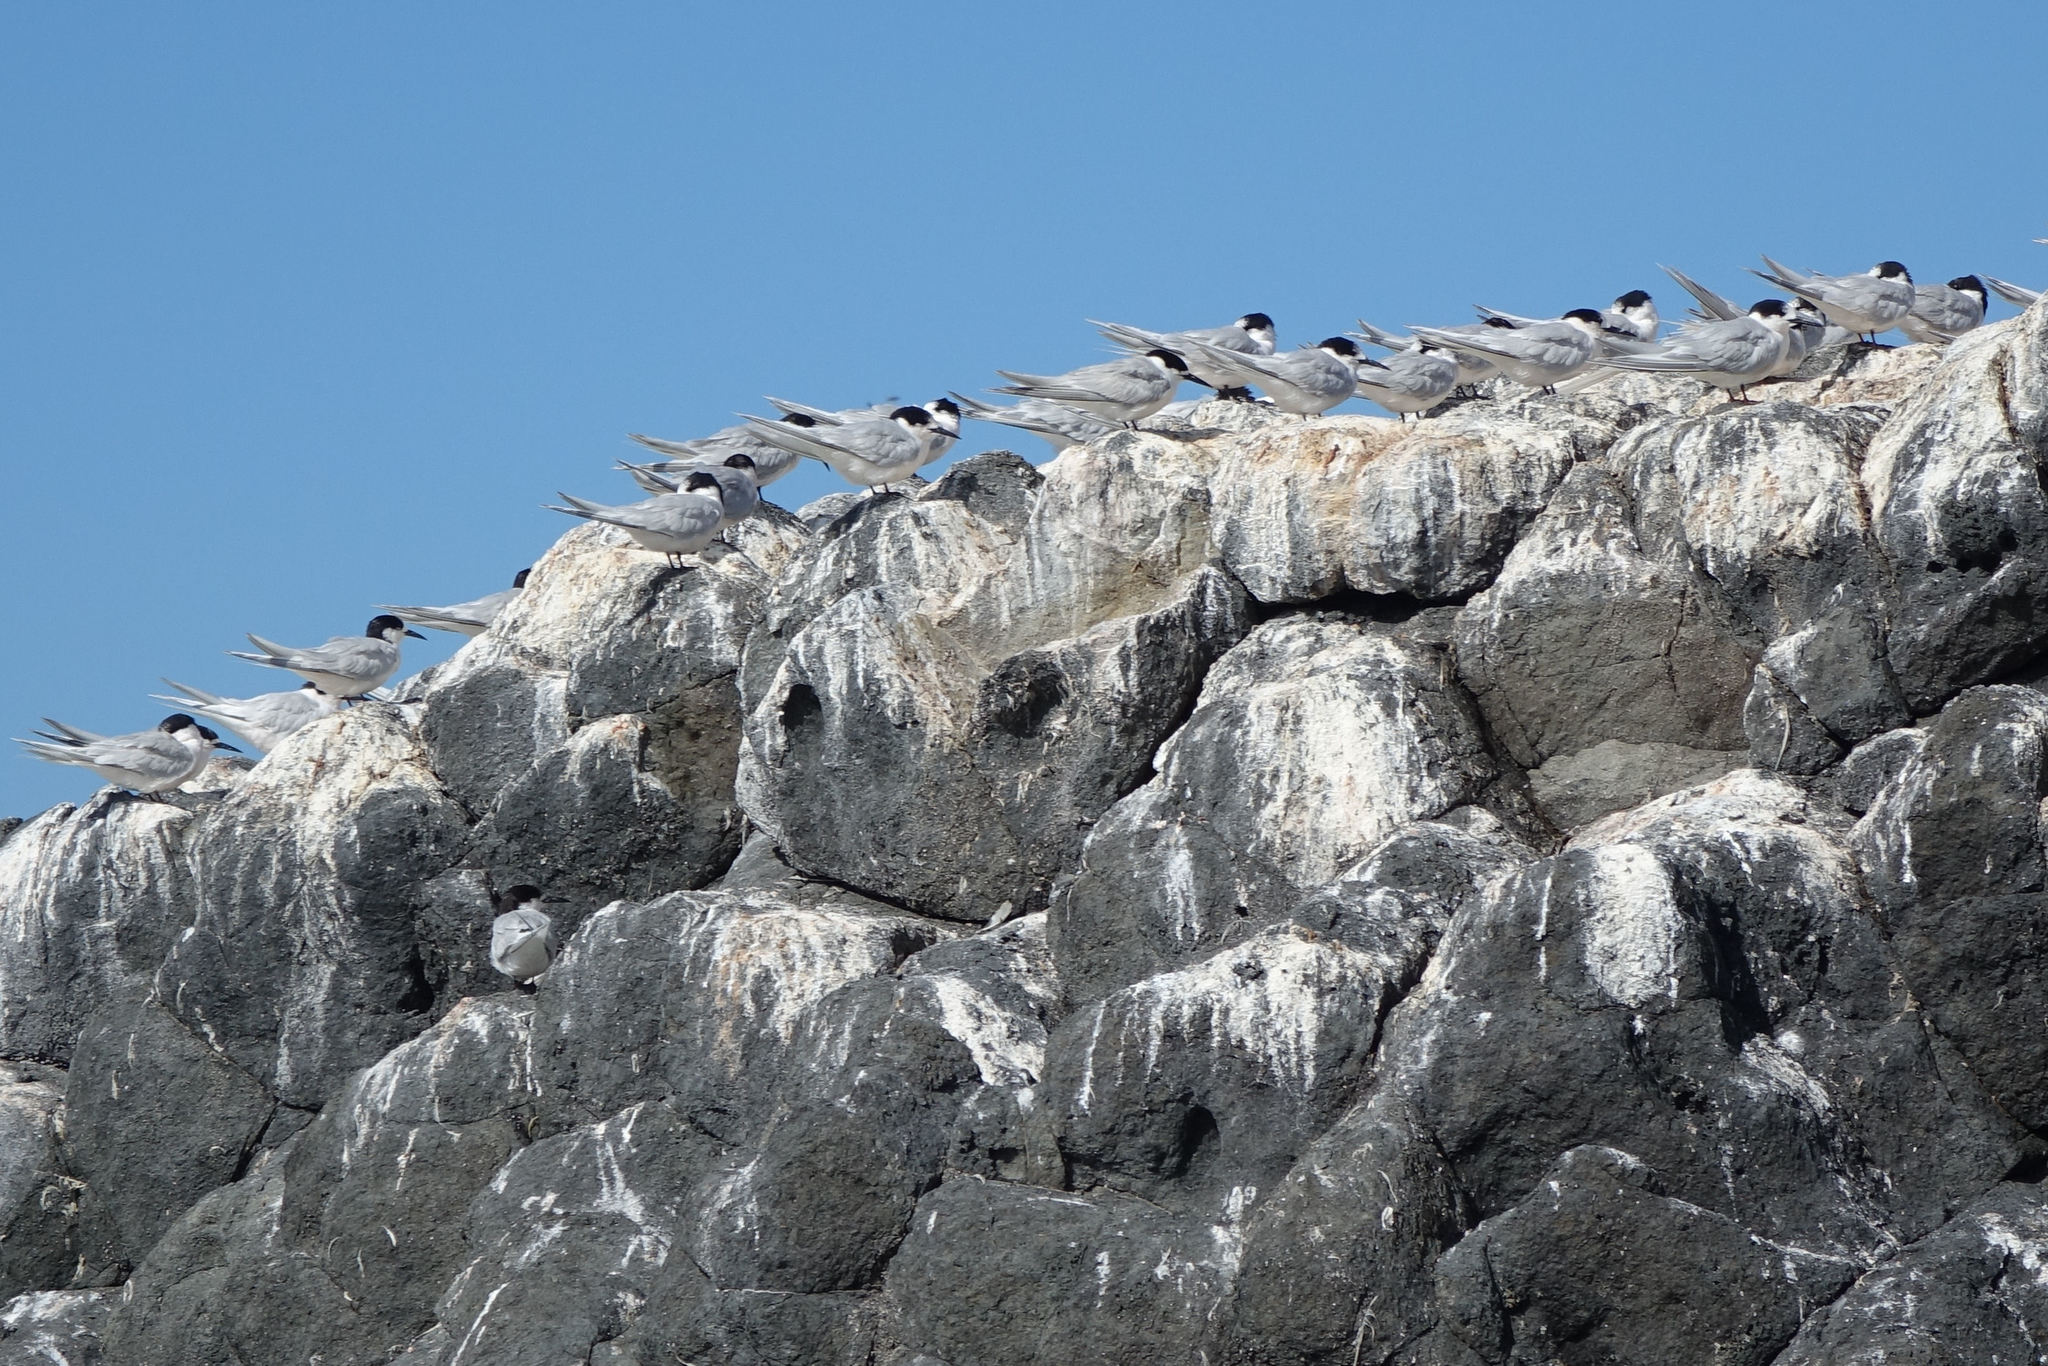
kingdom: Animalia
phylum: Chordata
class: Aves
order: Charadriiformes
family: Laridae
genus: Sterna
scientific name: Sterna striata
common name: White-fronted tern
